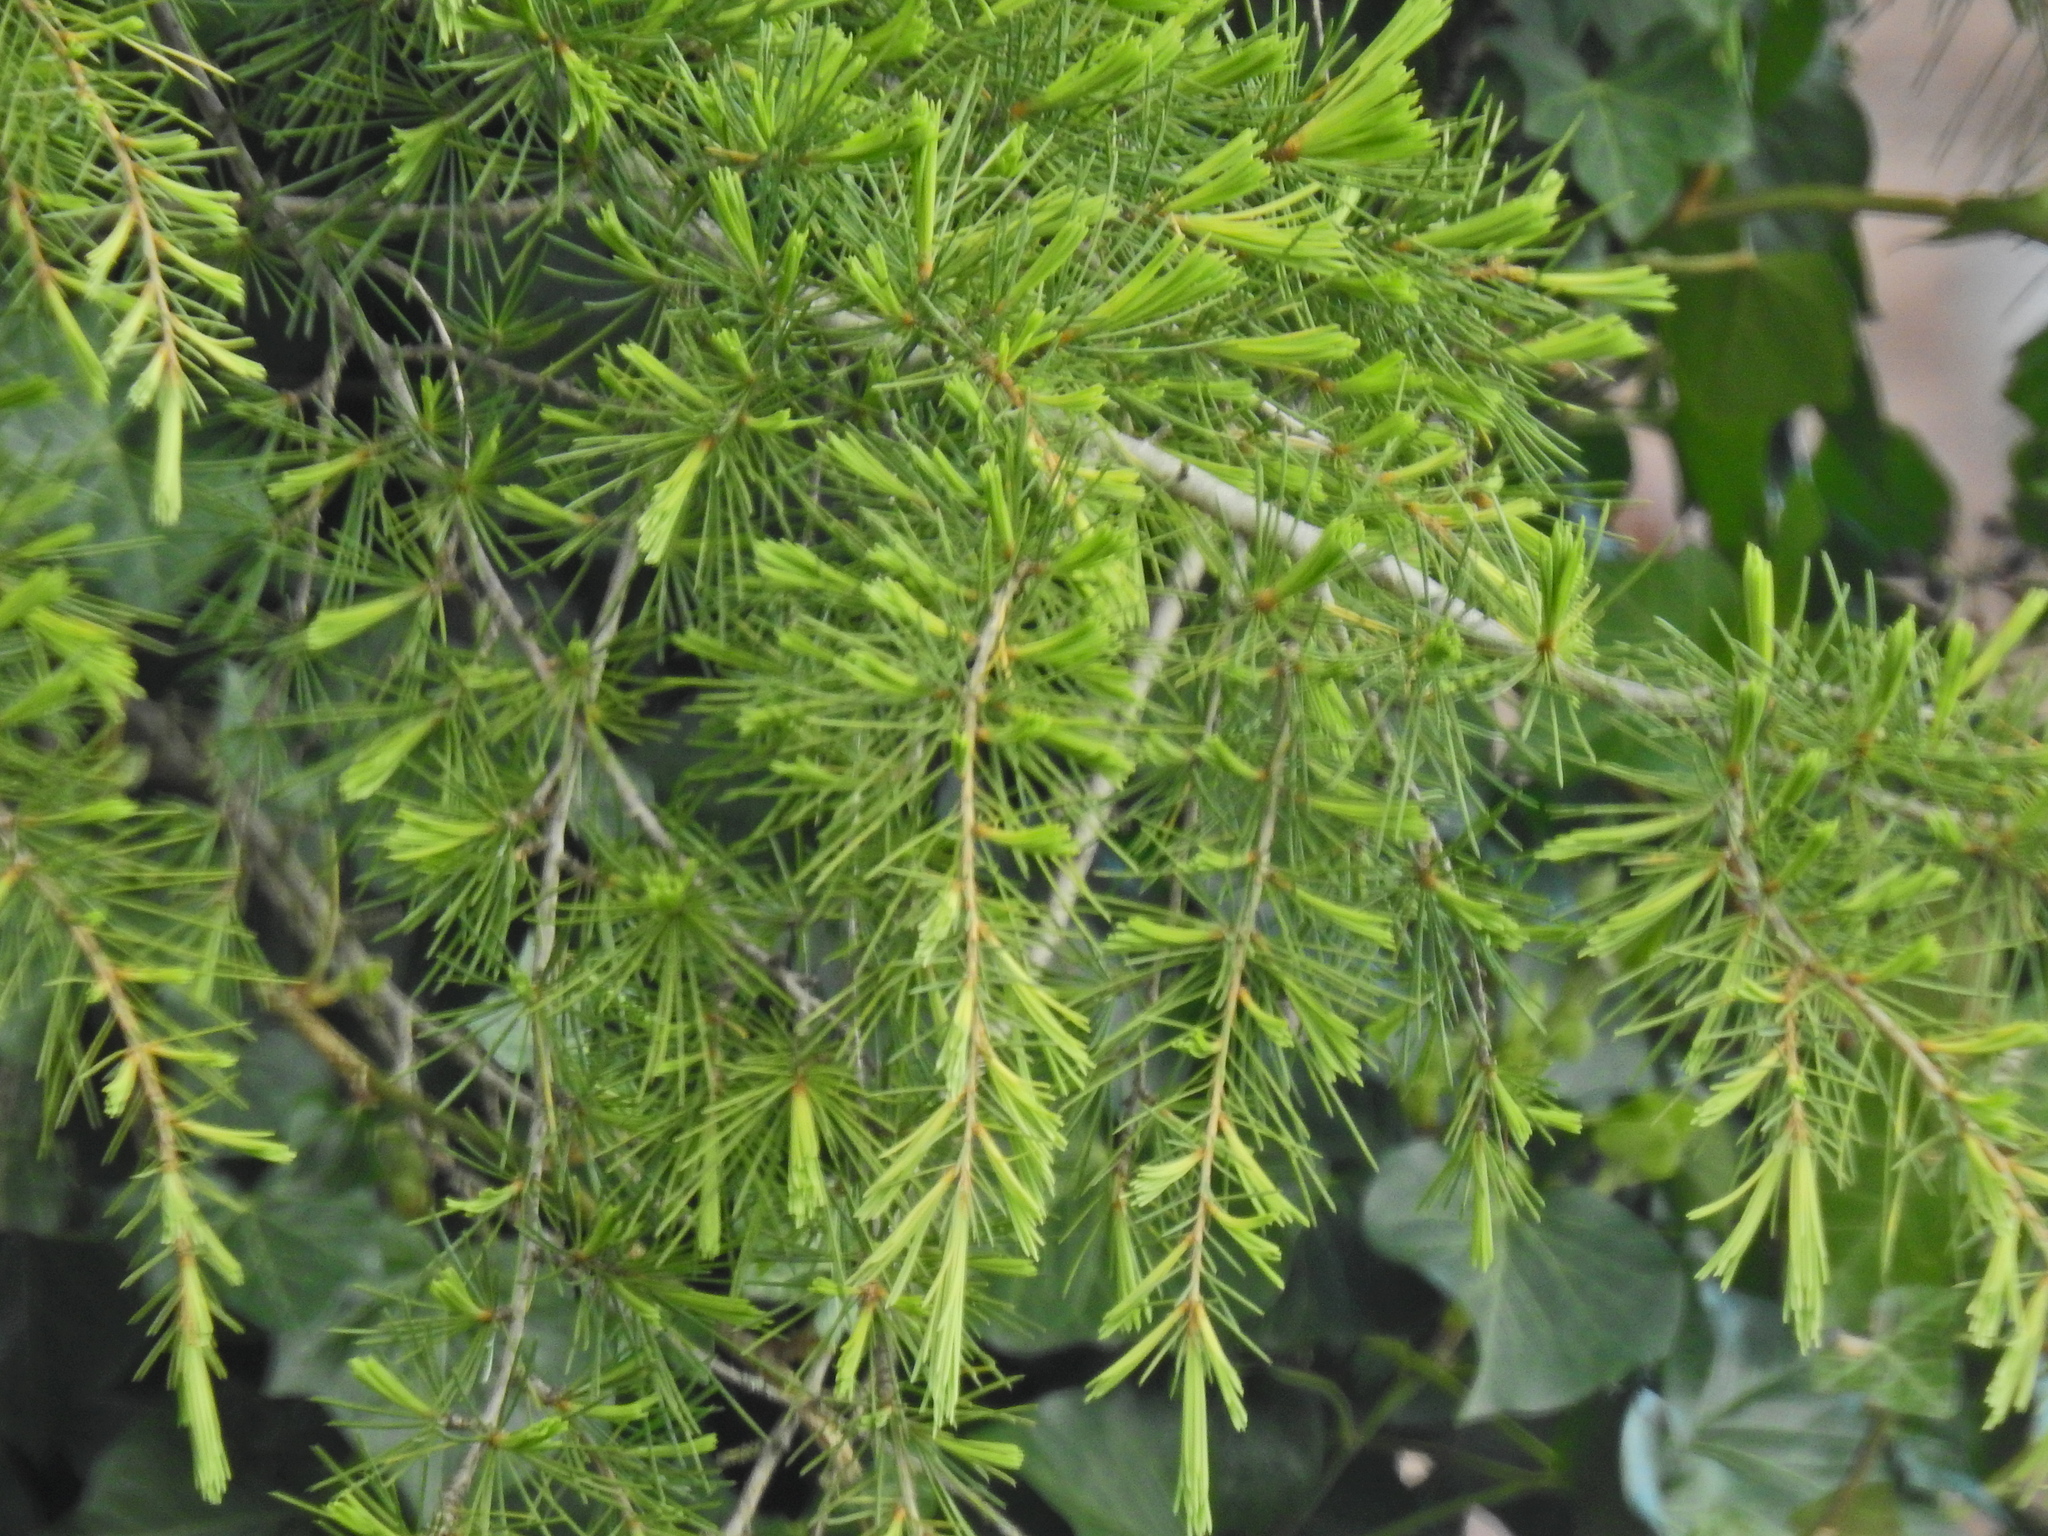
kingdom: Plantae
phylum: Tracheophyta
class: Pinopsida
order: Pinales
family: Pinaceae
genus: Cedrus
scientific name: Cedrus deodara
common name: Deodar
